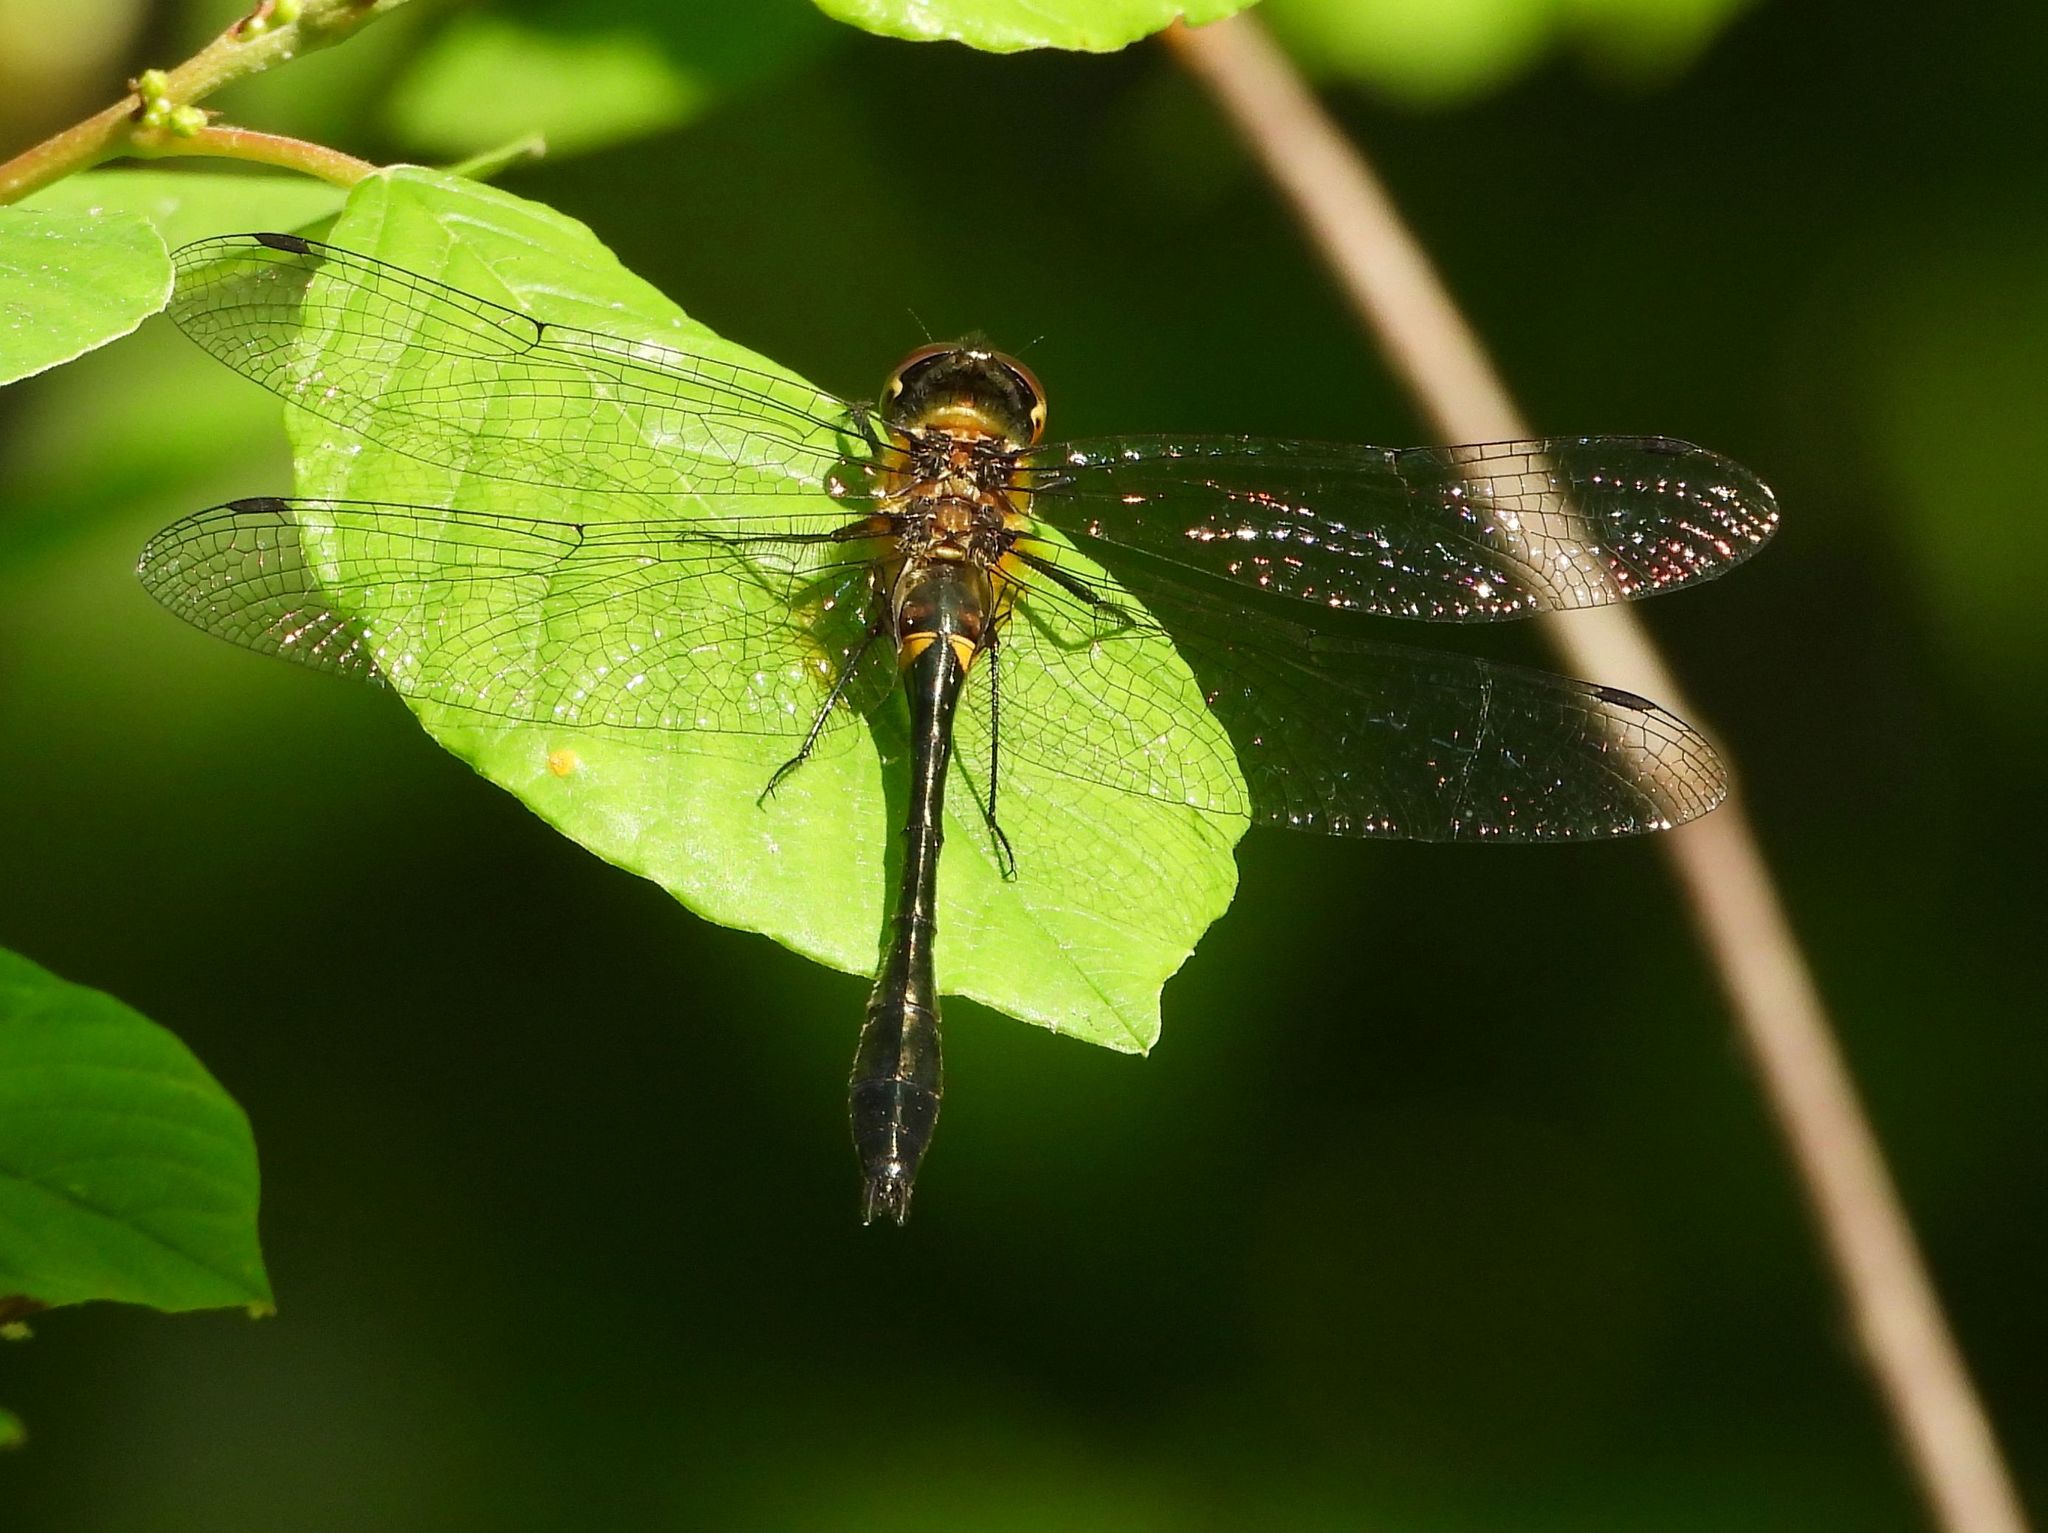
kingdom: Animalia
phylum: Arthropoda
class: Insecta
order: Odonata
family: Corduliidae
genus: Dorocordulia
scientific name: Dorocordulia libera
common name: Racket-tailed emerald
